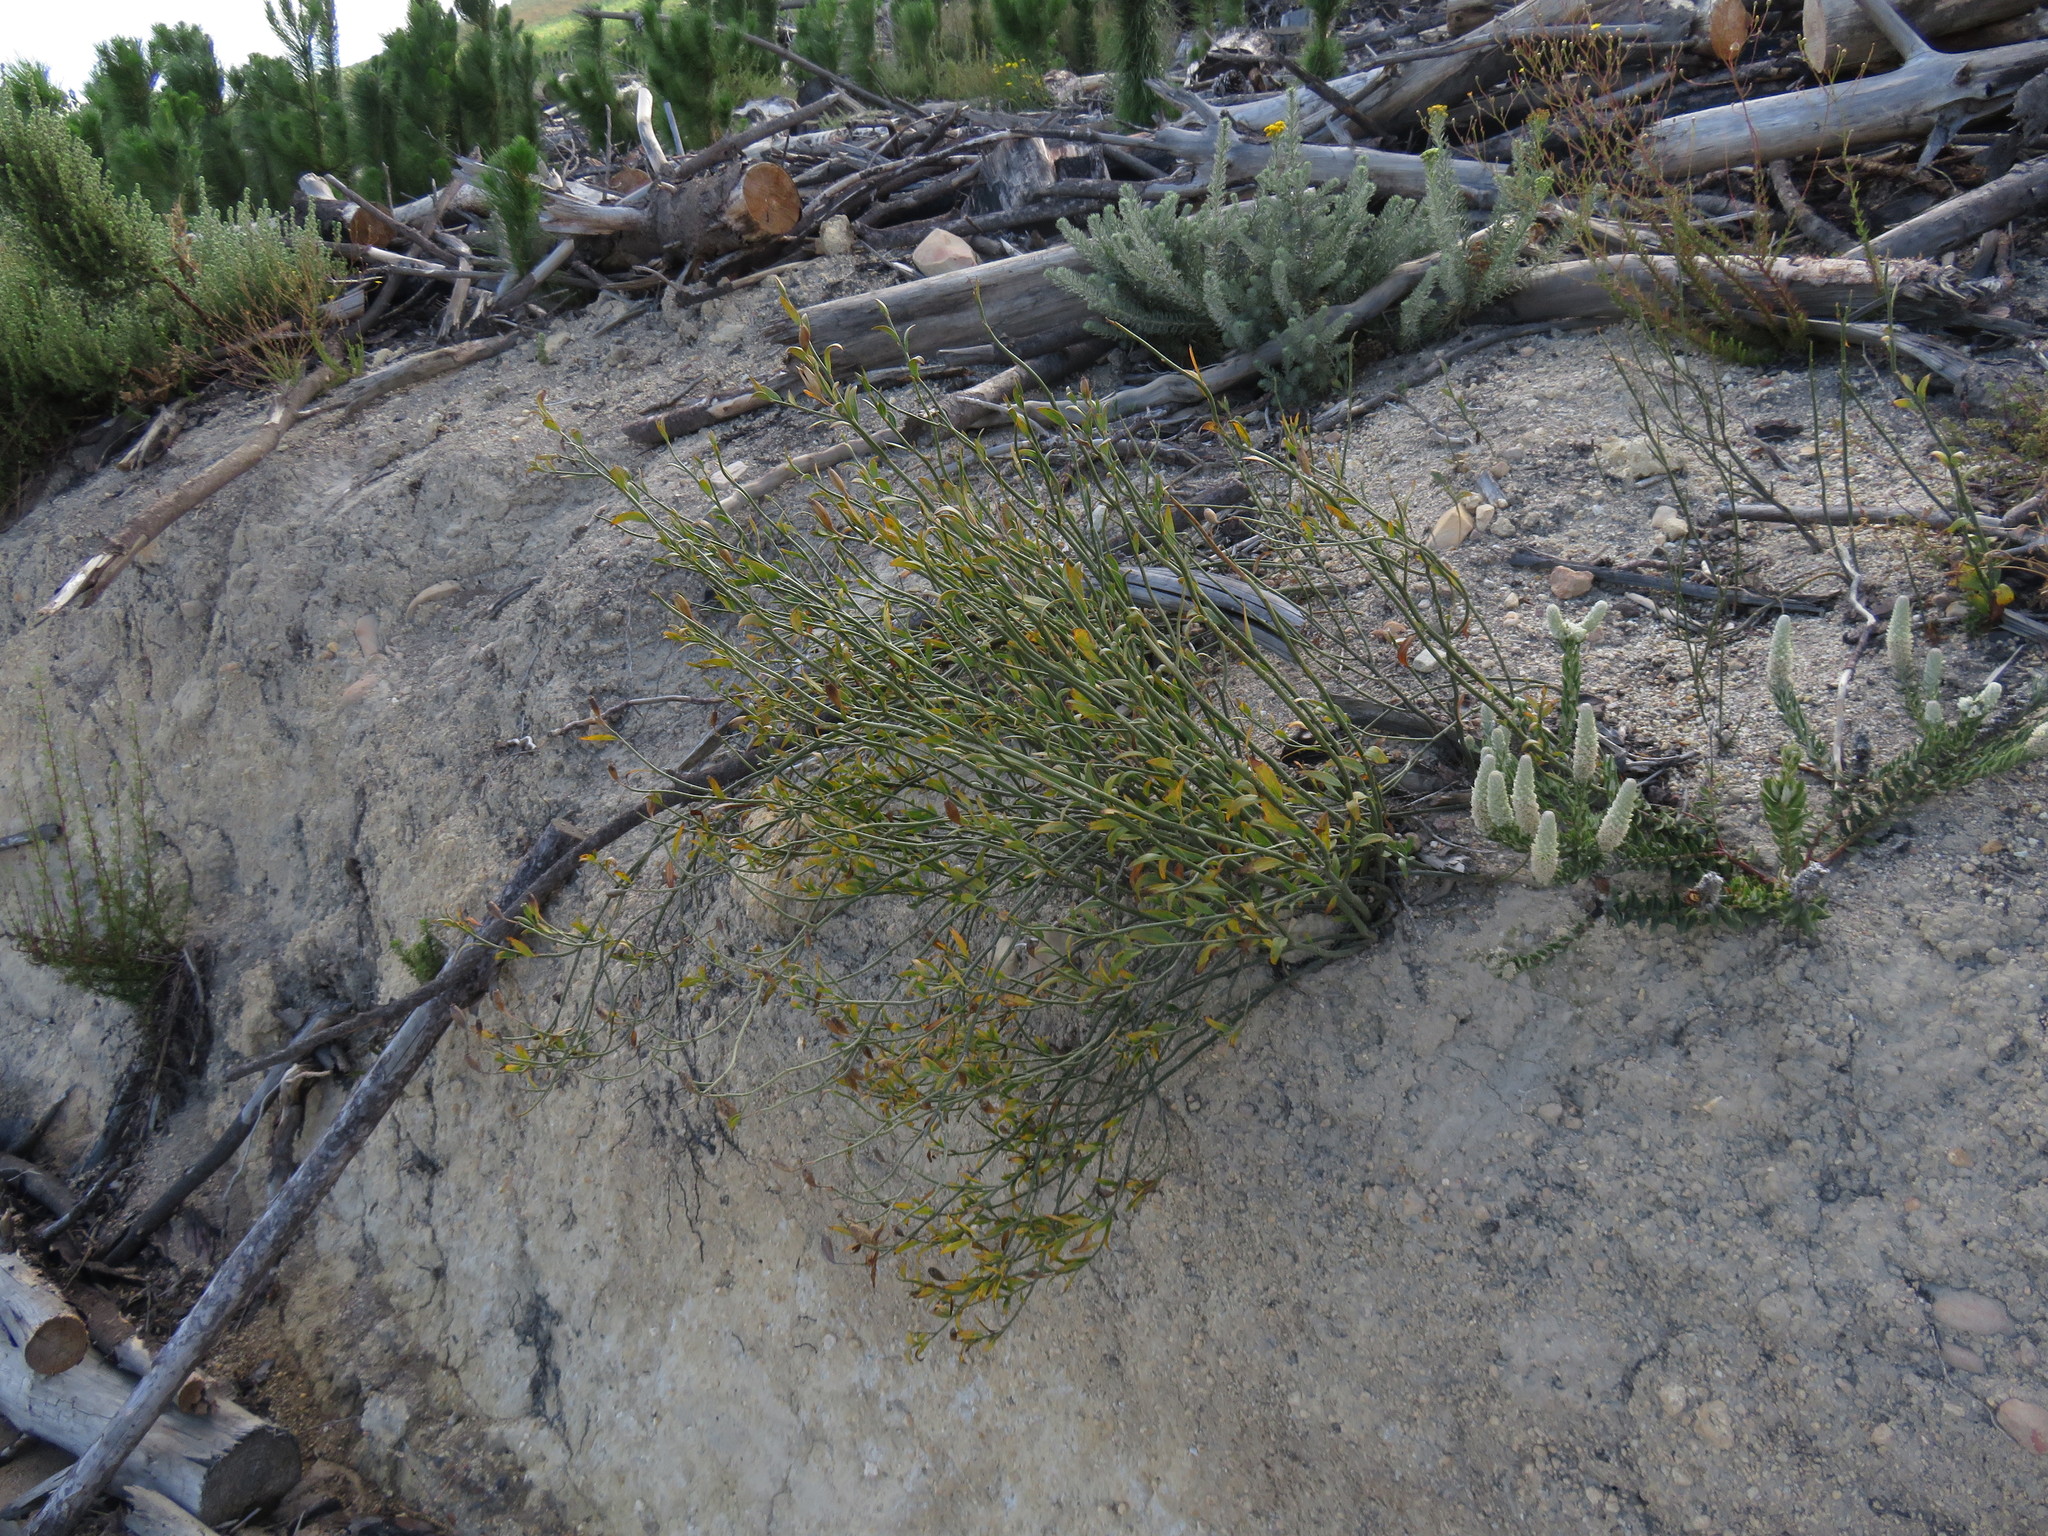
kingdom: Plantae
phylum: Tracheophyta
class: Magnoliopsida
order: Solanales
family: Montiniaceae
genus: Montinia
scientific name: Montinia caryophyllacea
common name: Wild clove-bush
